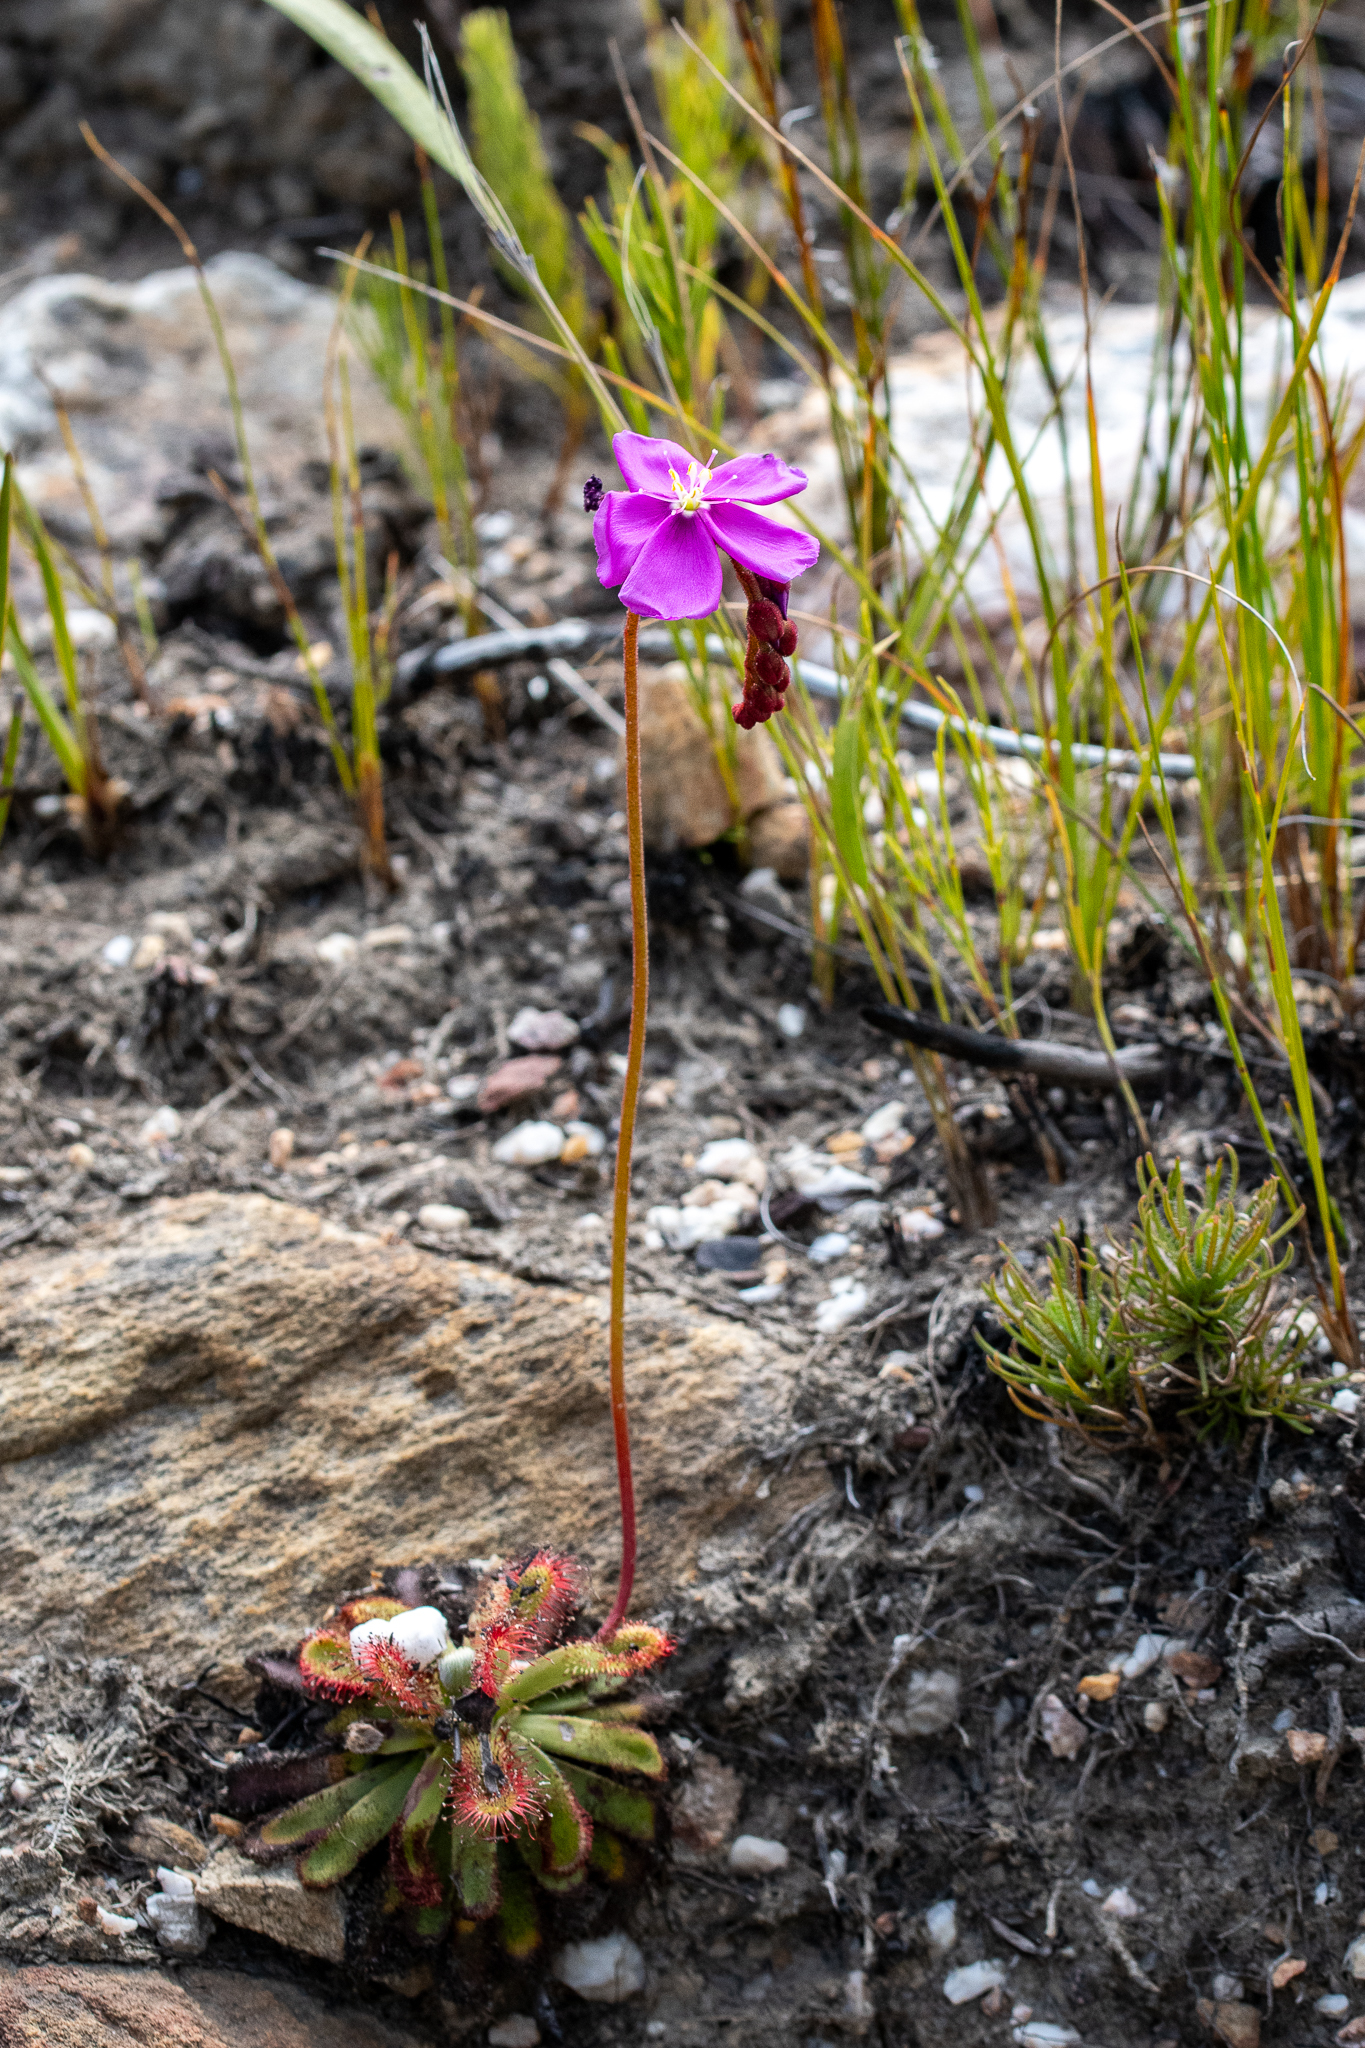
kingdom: Plantae
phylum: Tracheophyta
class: Magnoliopsida
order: Caryophyllales
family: Droseraceae
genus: Drosera
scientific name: Drosera aliciae
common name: Alice sundew
